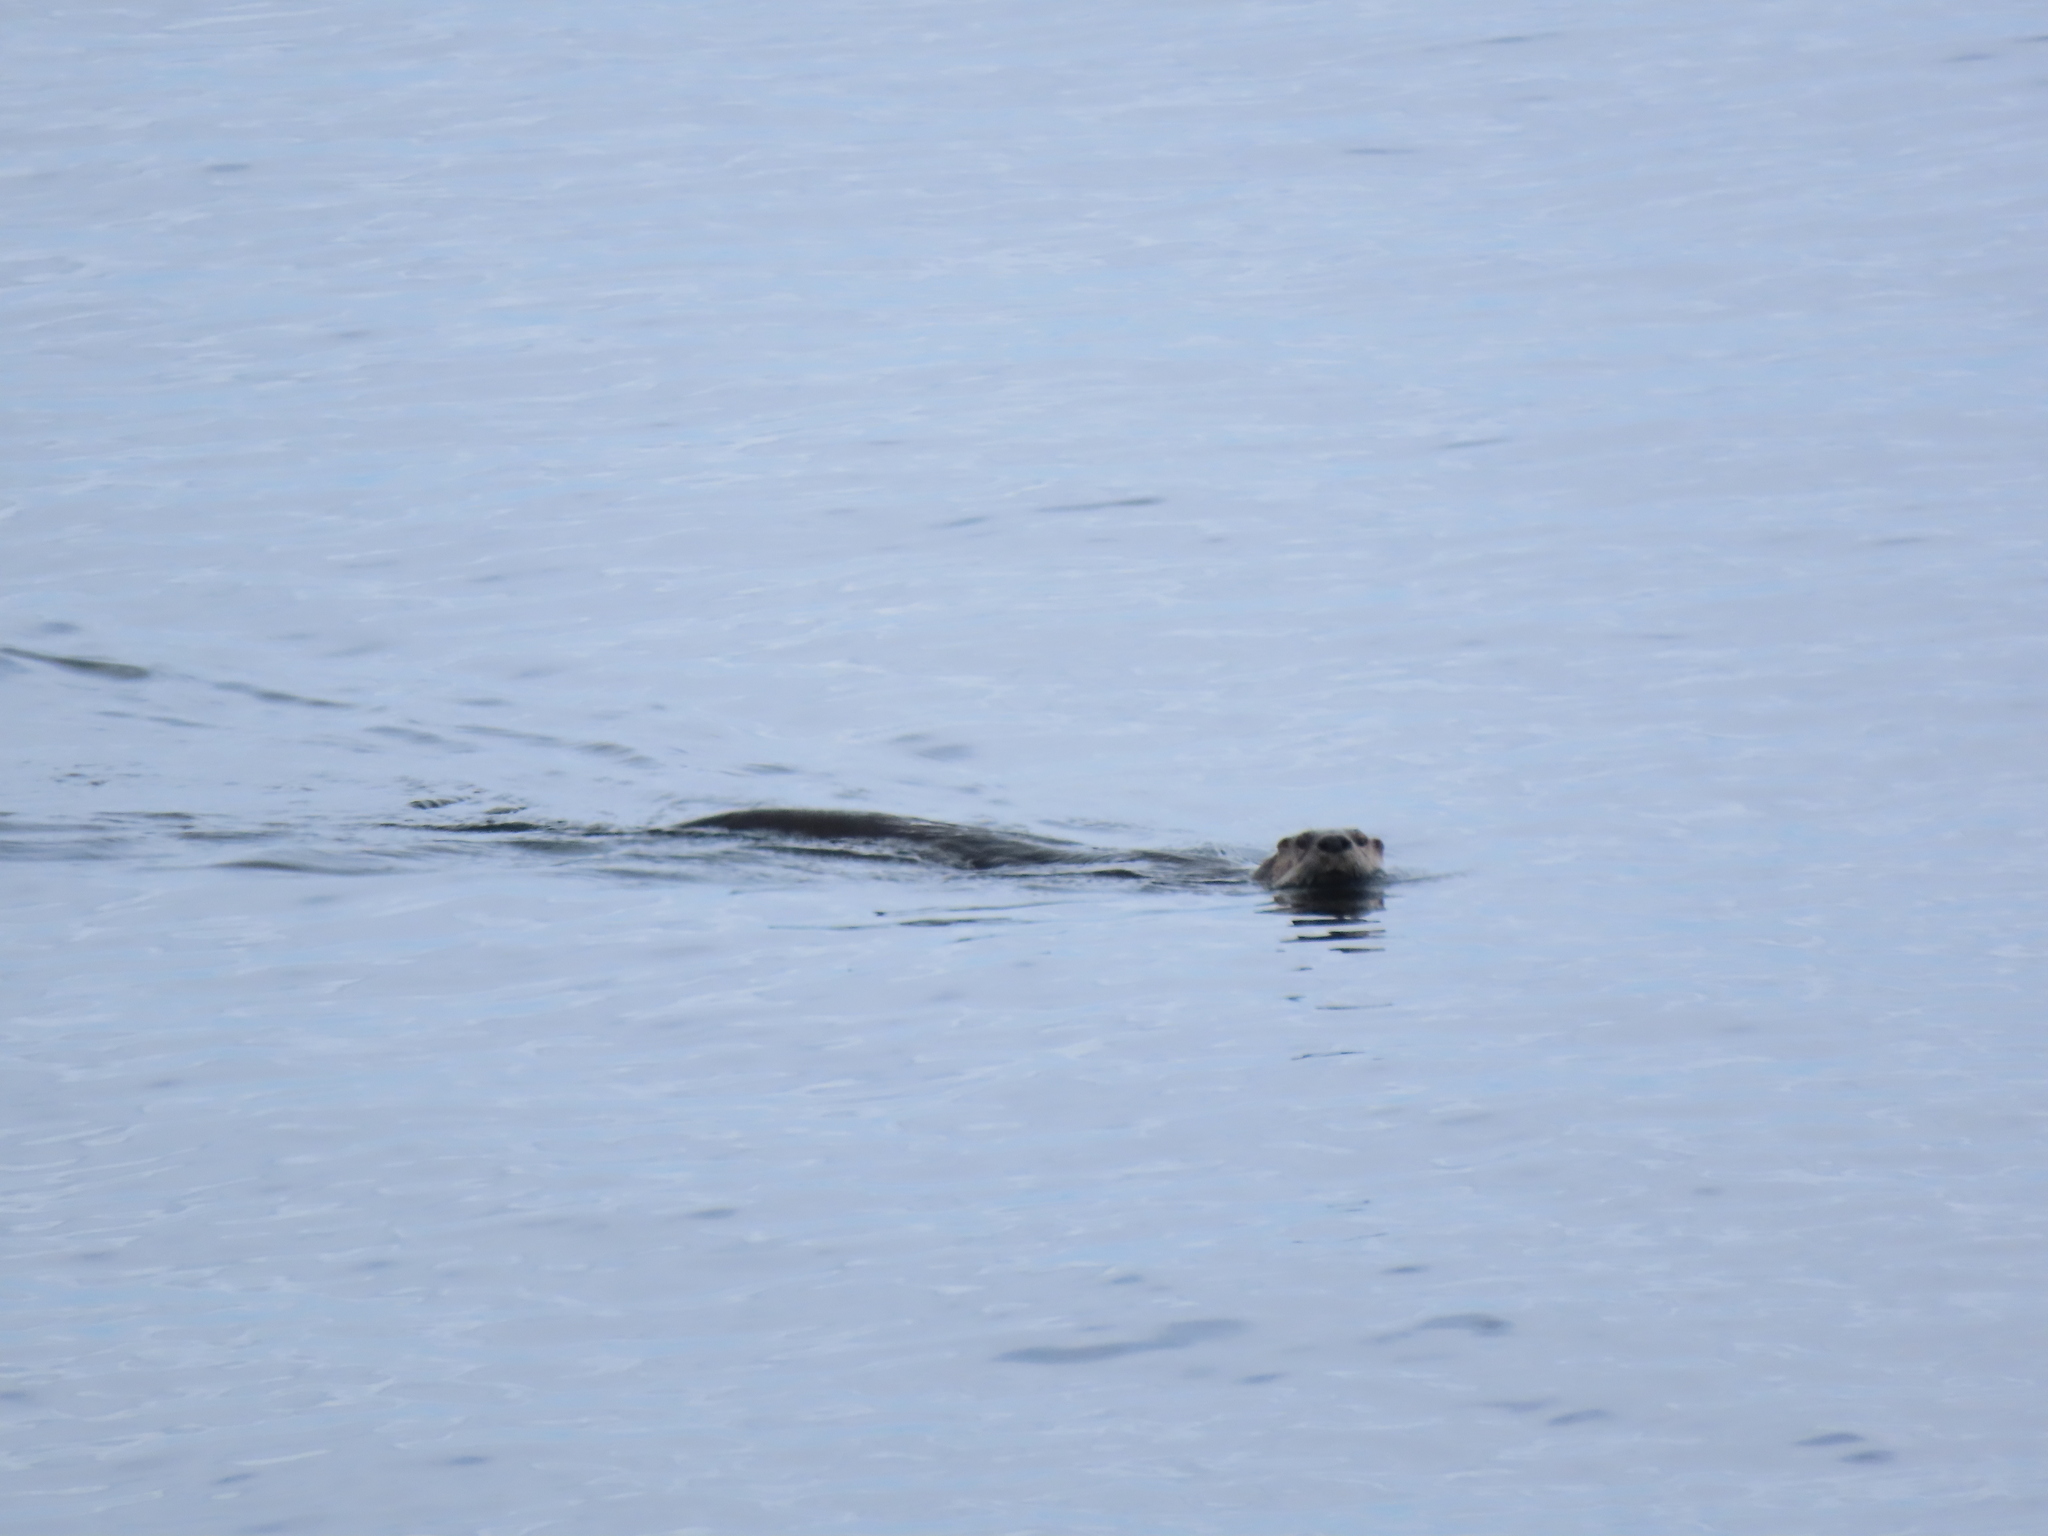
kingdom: Animalia
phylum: Chordata
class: Mammalia
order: Carnivora
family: Mustelidae
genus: Lontra
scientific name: Lontra canadensis
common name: North american river otter
